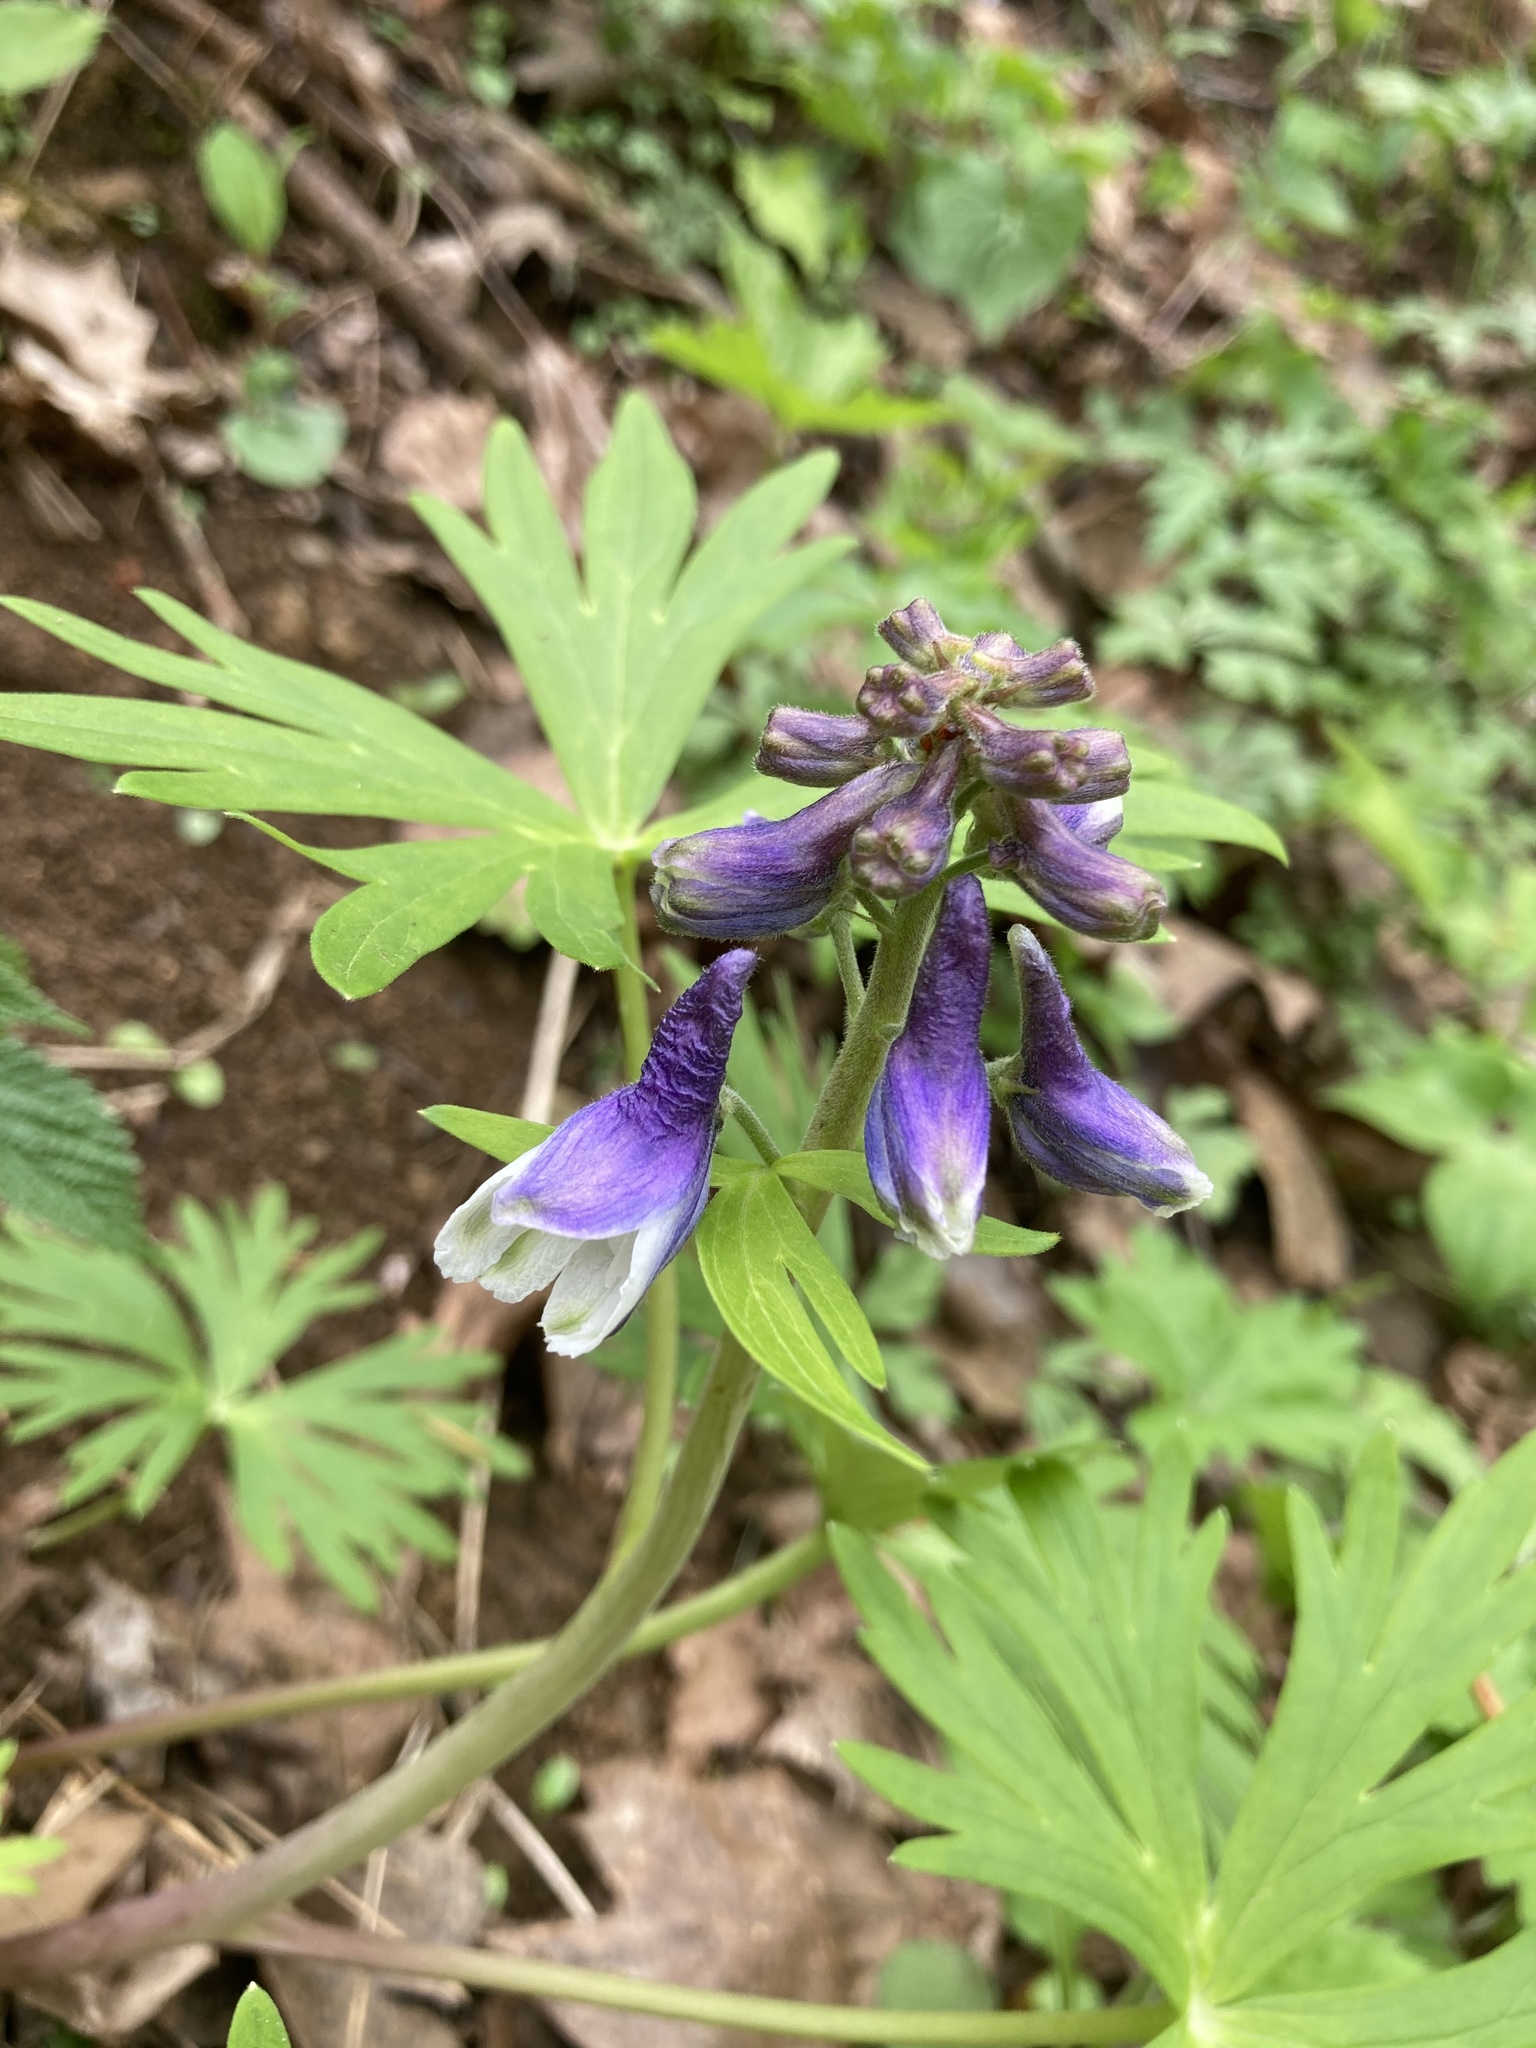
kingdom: Plantae
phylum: Tracheophyta
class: Magnoliopsida
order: Ranunculales
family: Ranunculaceae
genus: Delphinium
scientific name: Delphinium tricorne
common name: Dwarf larkspur
